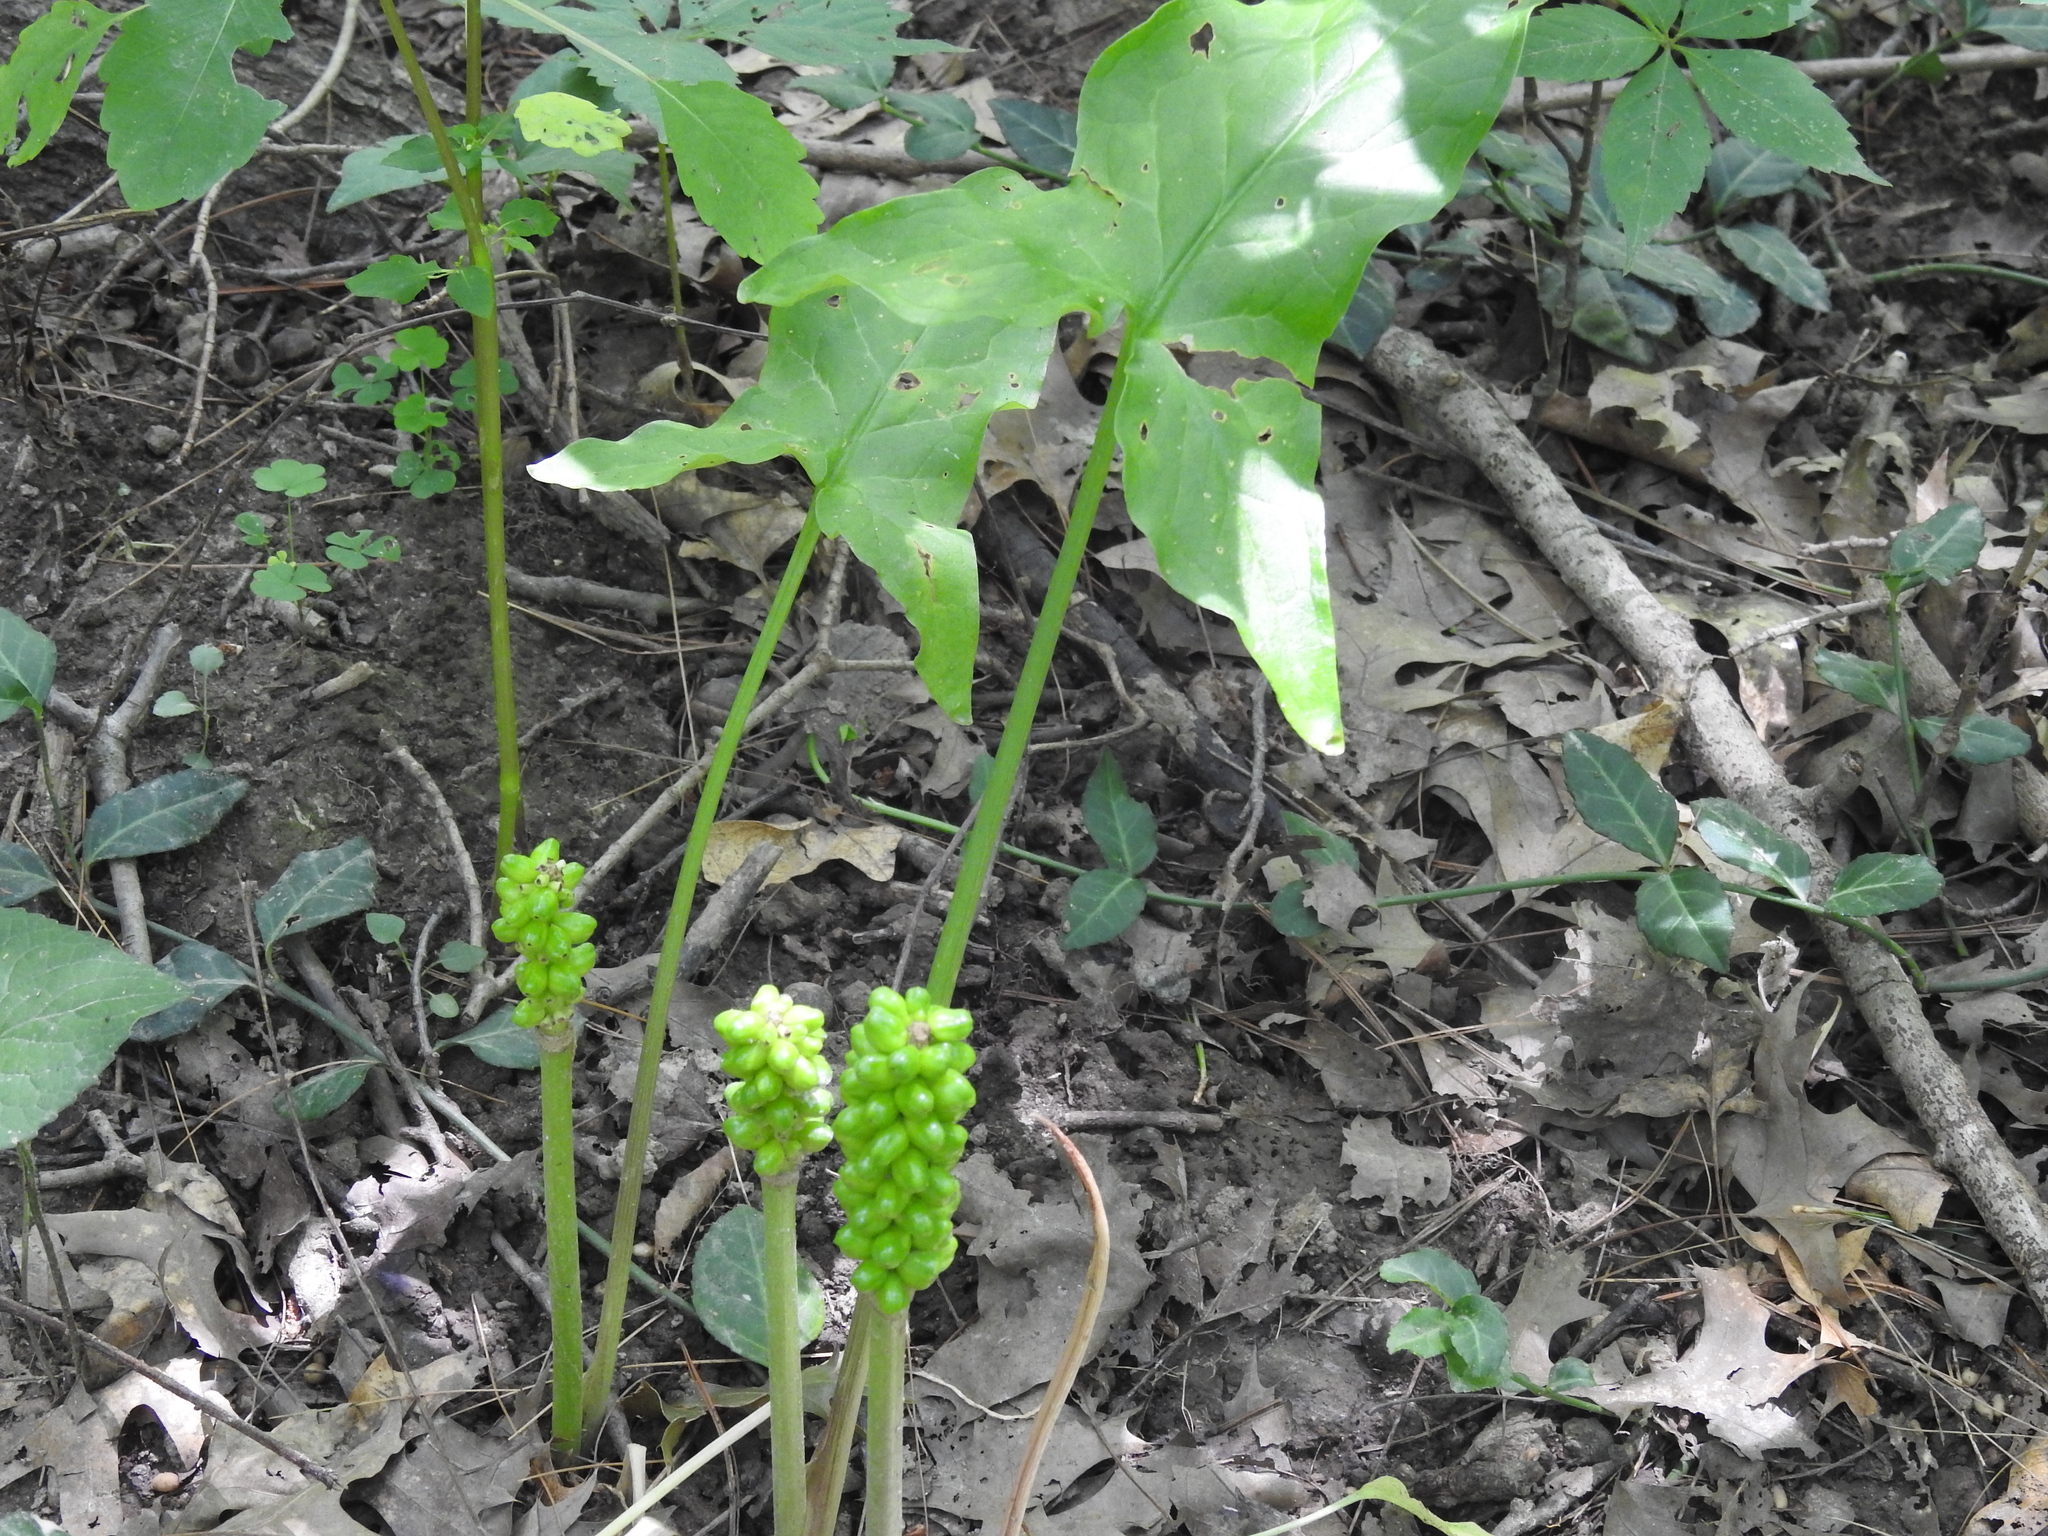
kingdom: Plantae
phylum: Tracheophyta
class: Liliopsida
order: Alismatales
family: Araceae
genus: Arum
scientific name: Arum italicum
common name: Italian lords-and-ladies
